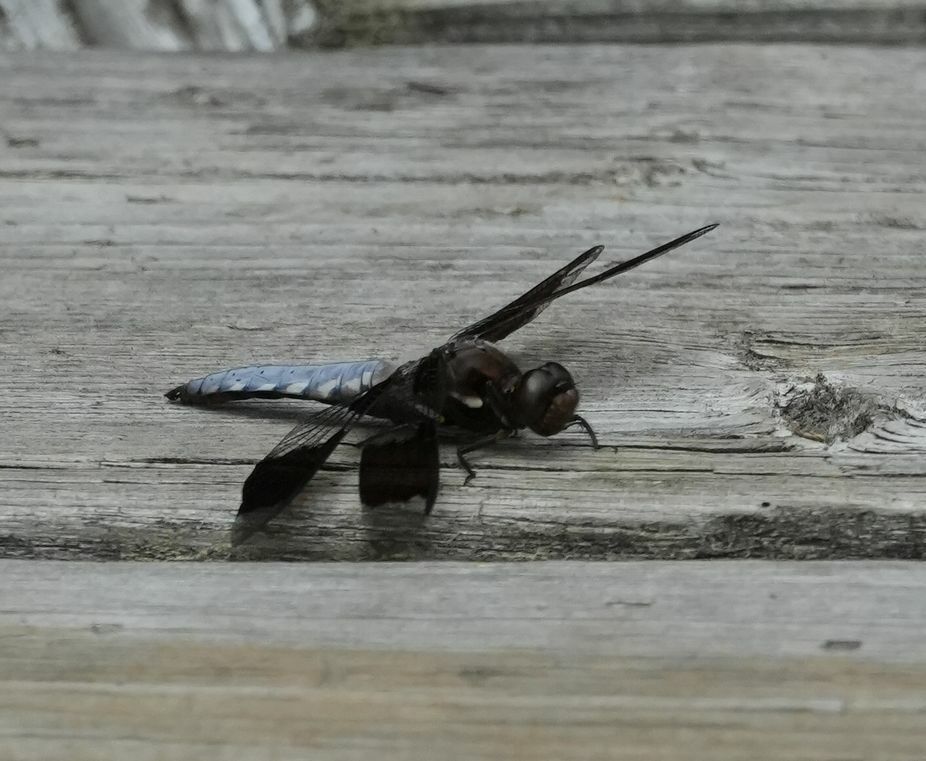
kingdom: Animalia
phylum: Arthropoda
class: Insecta
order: Odonata
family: Libellulidae
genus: Plathemis
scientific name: Plathemis lydia
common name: Common whitetail
